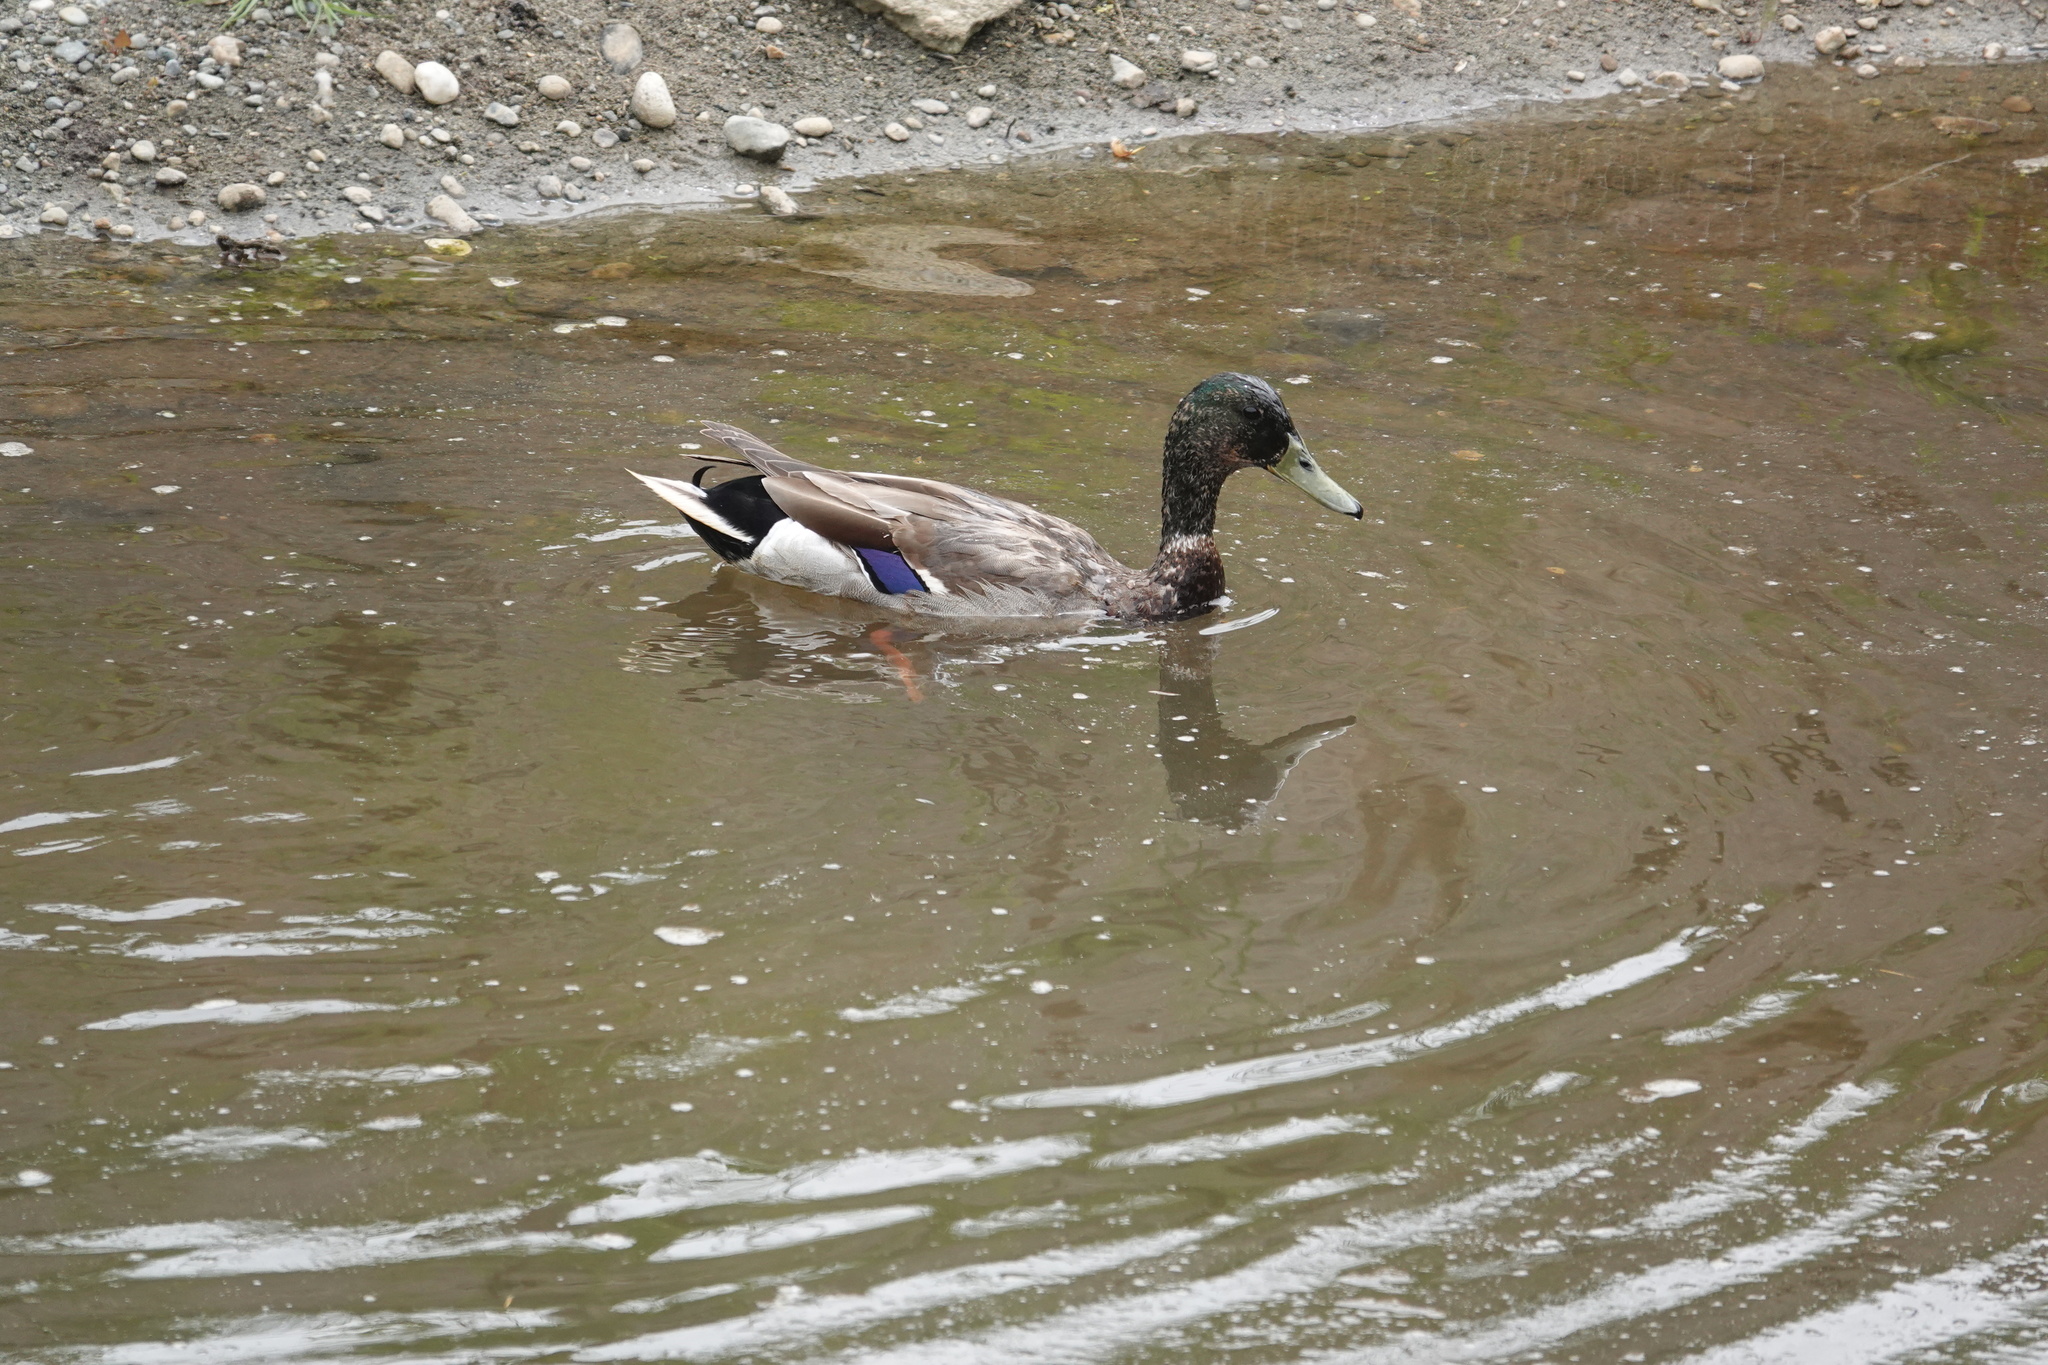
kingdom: Animalia
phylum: Chordata
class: Aves
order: Anseriformes
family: Anatidae
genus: Anas
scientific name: Anas platyrhynchos
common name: Mallard
